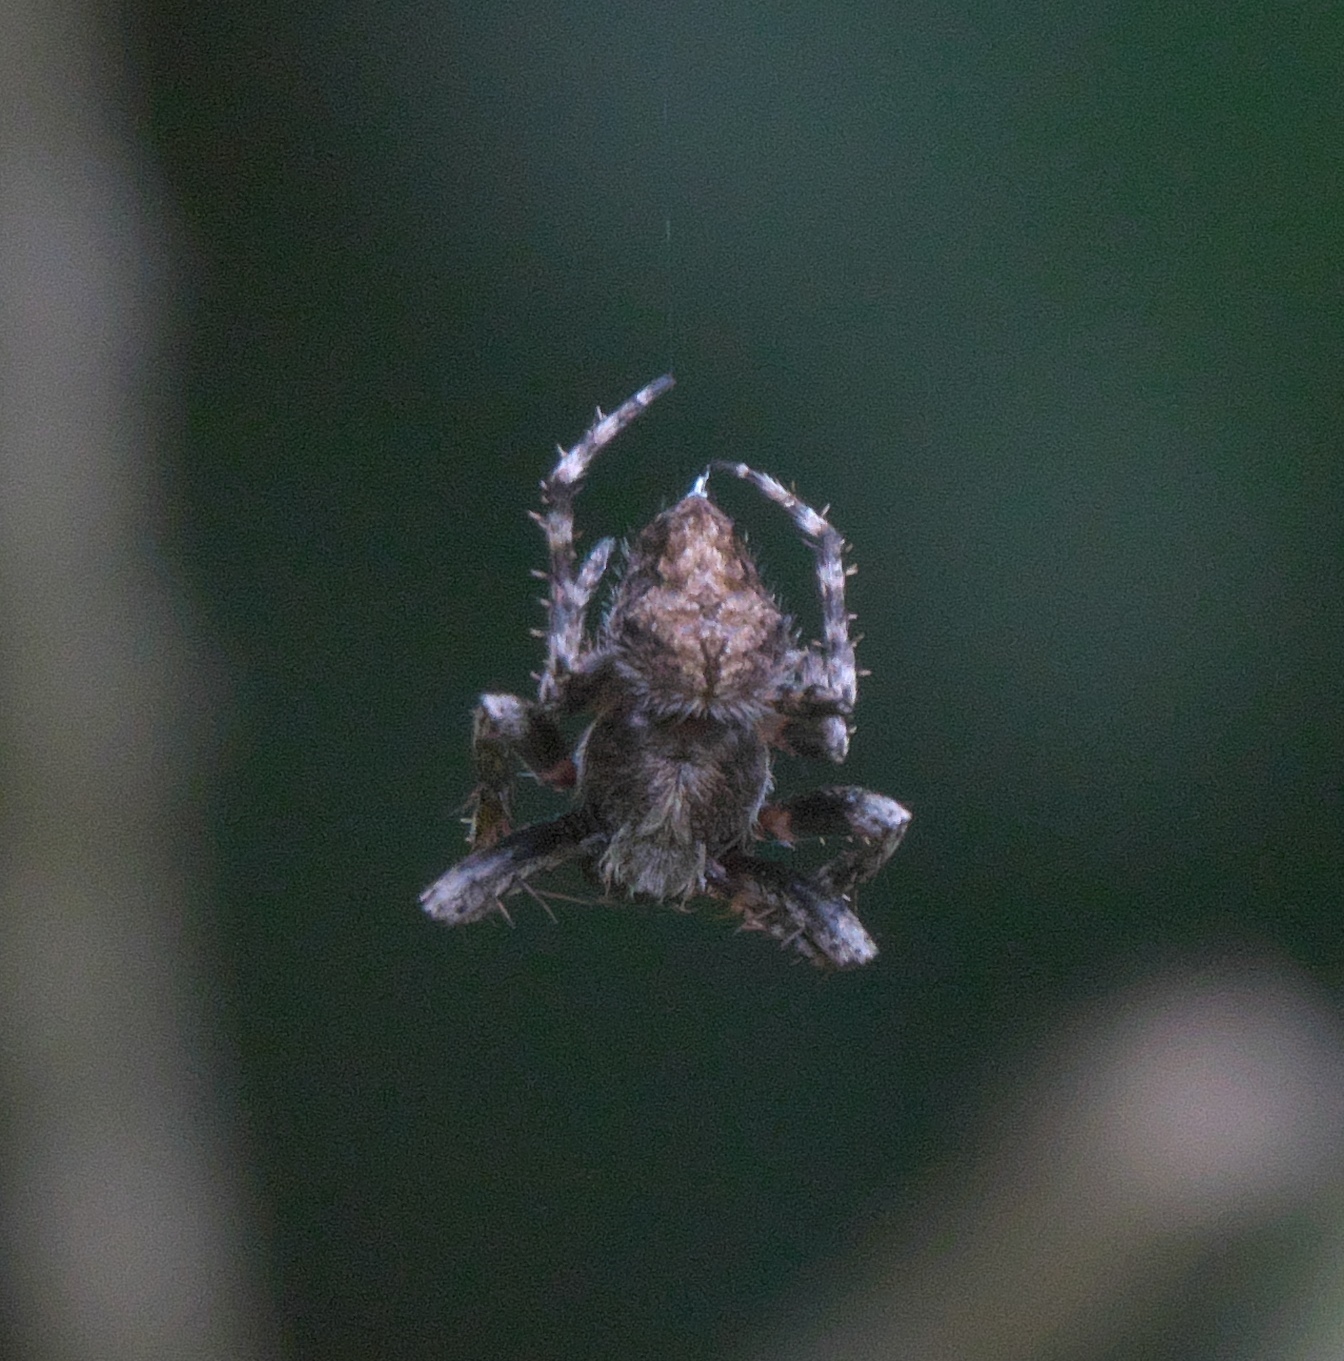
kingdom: Animalia
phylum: Arthropoda
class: Arachnida
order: Araneae
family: Araneidae
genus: Eriophora
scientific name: Eriophora pustulosa
